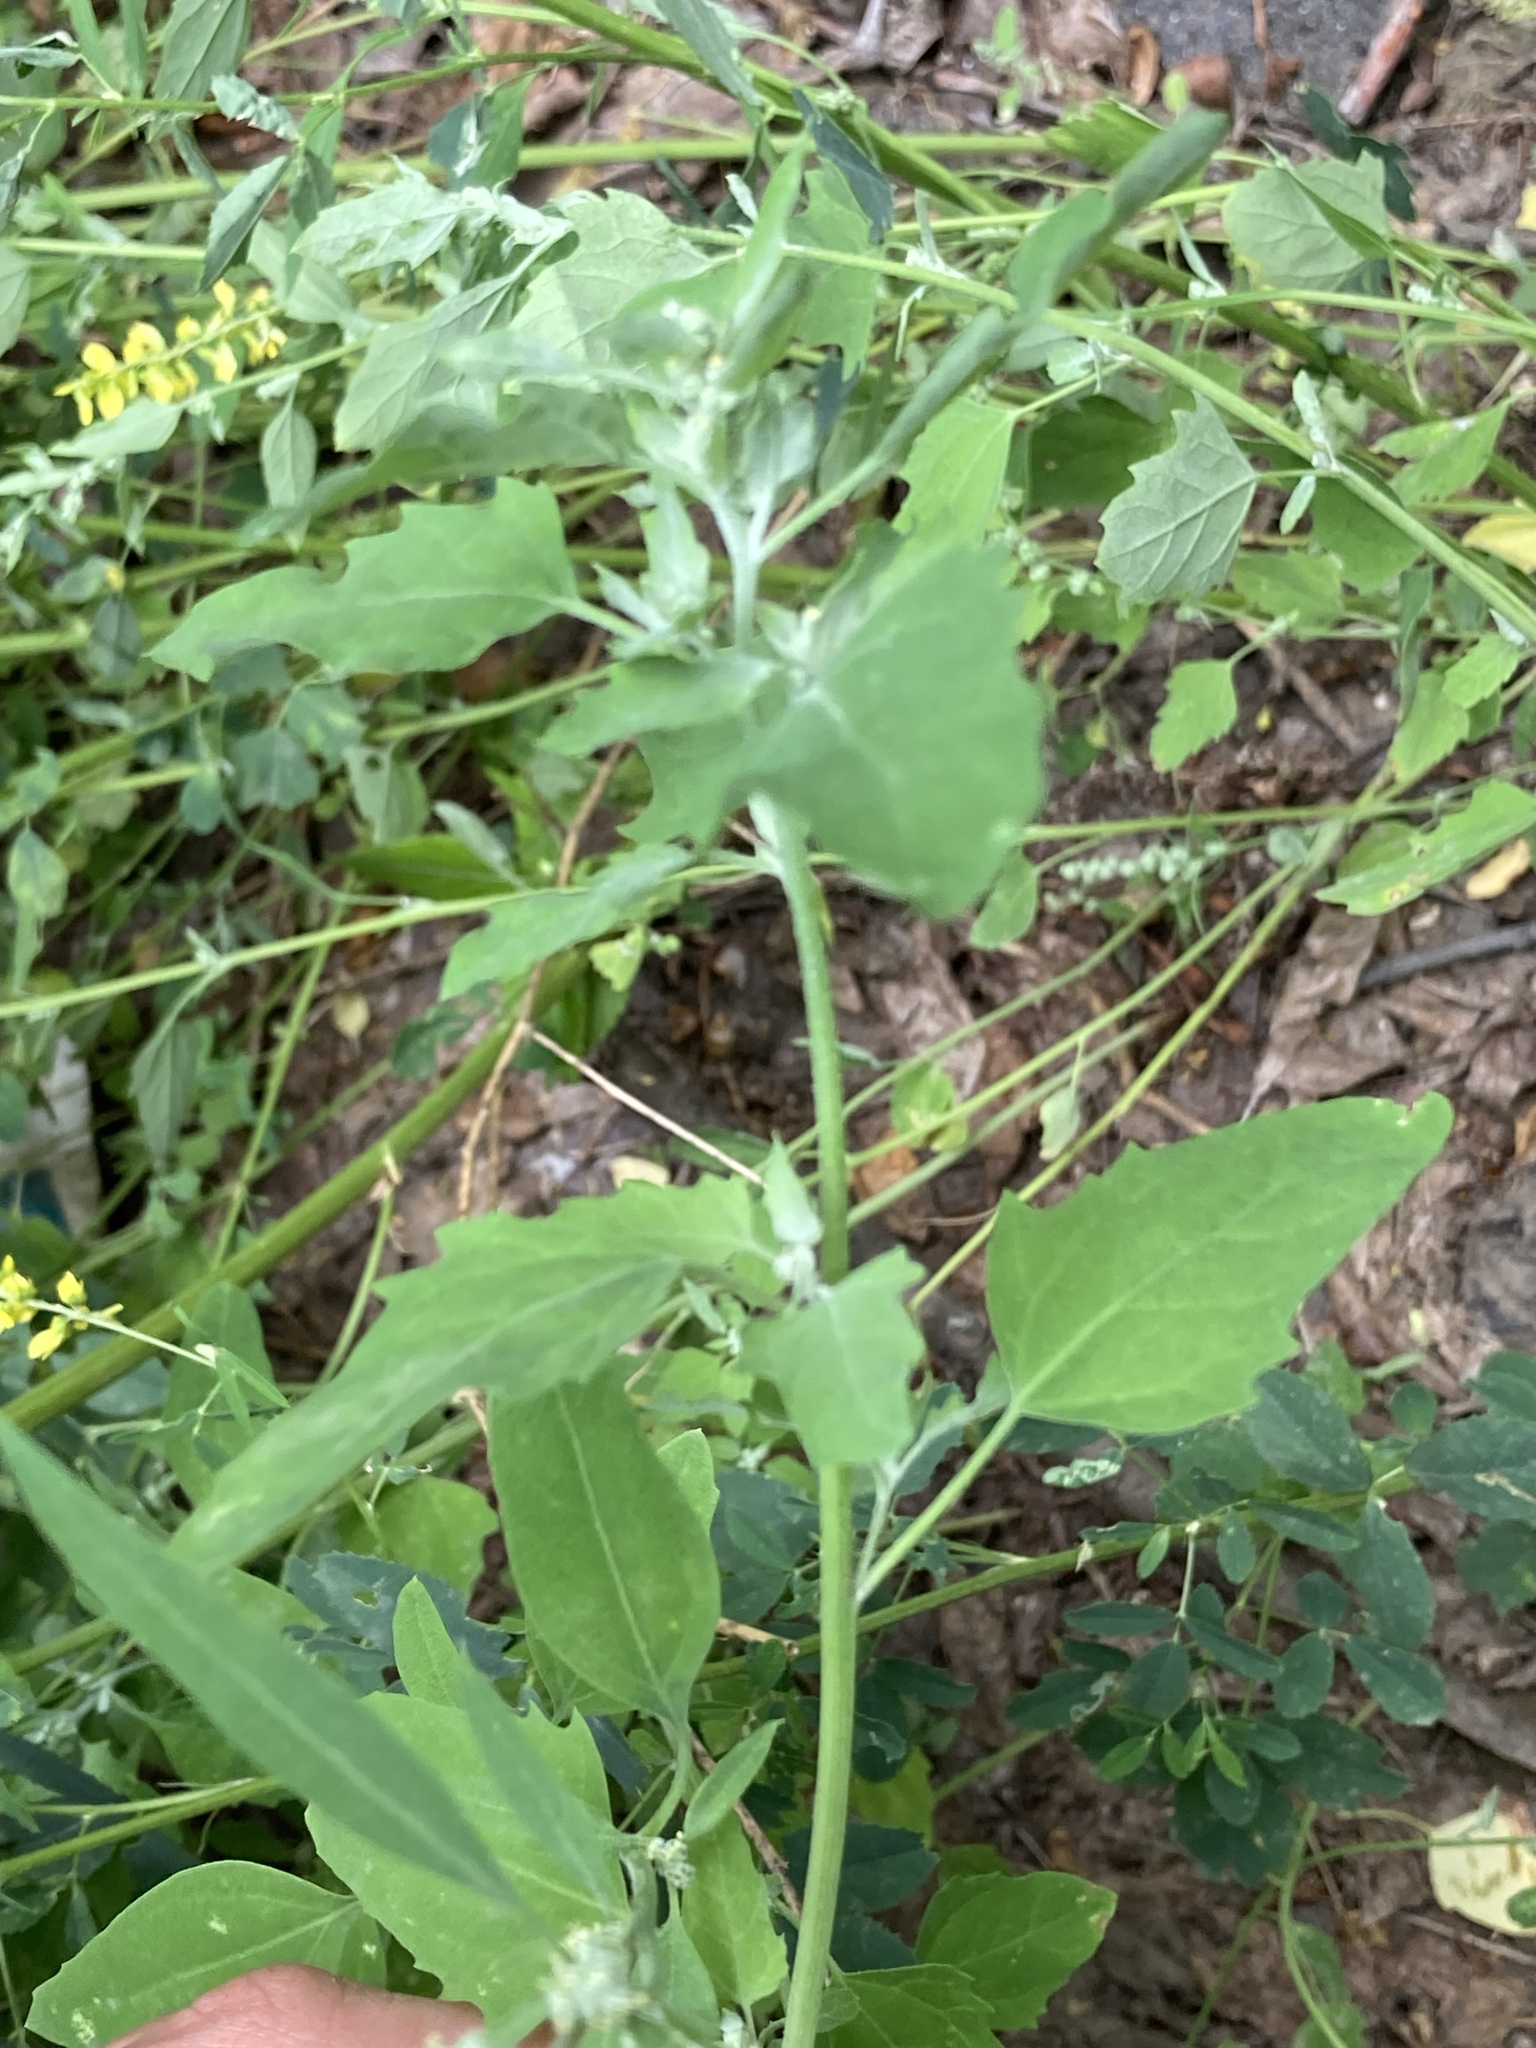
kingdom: Plantae
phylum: Tracheophyta
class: Magnoliopsida
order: Caryophyllales
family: Amaranthaceae
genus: Chenopodium
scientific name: Chenopodium album
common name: Fat-hen
